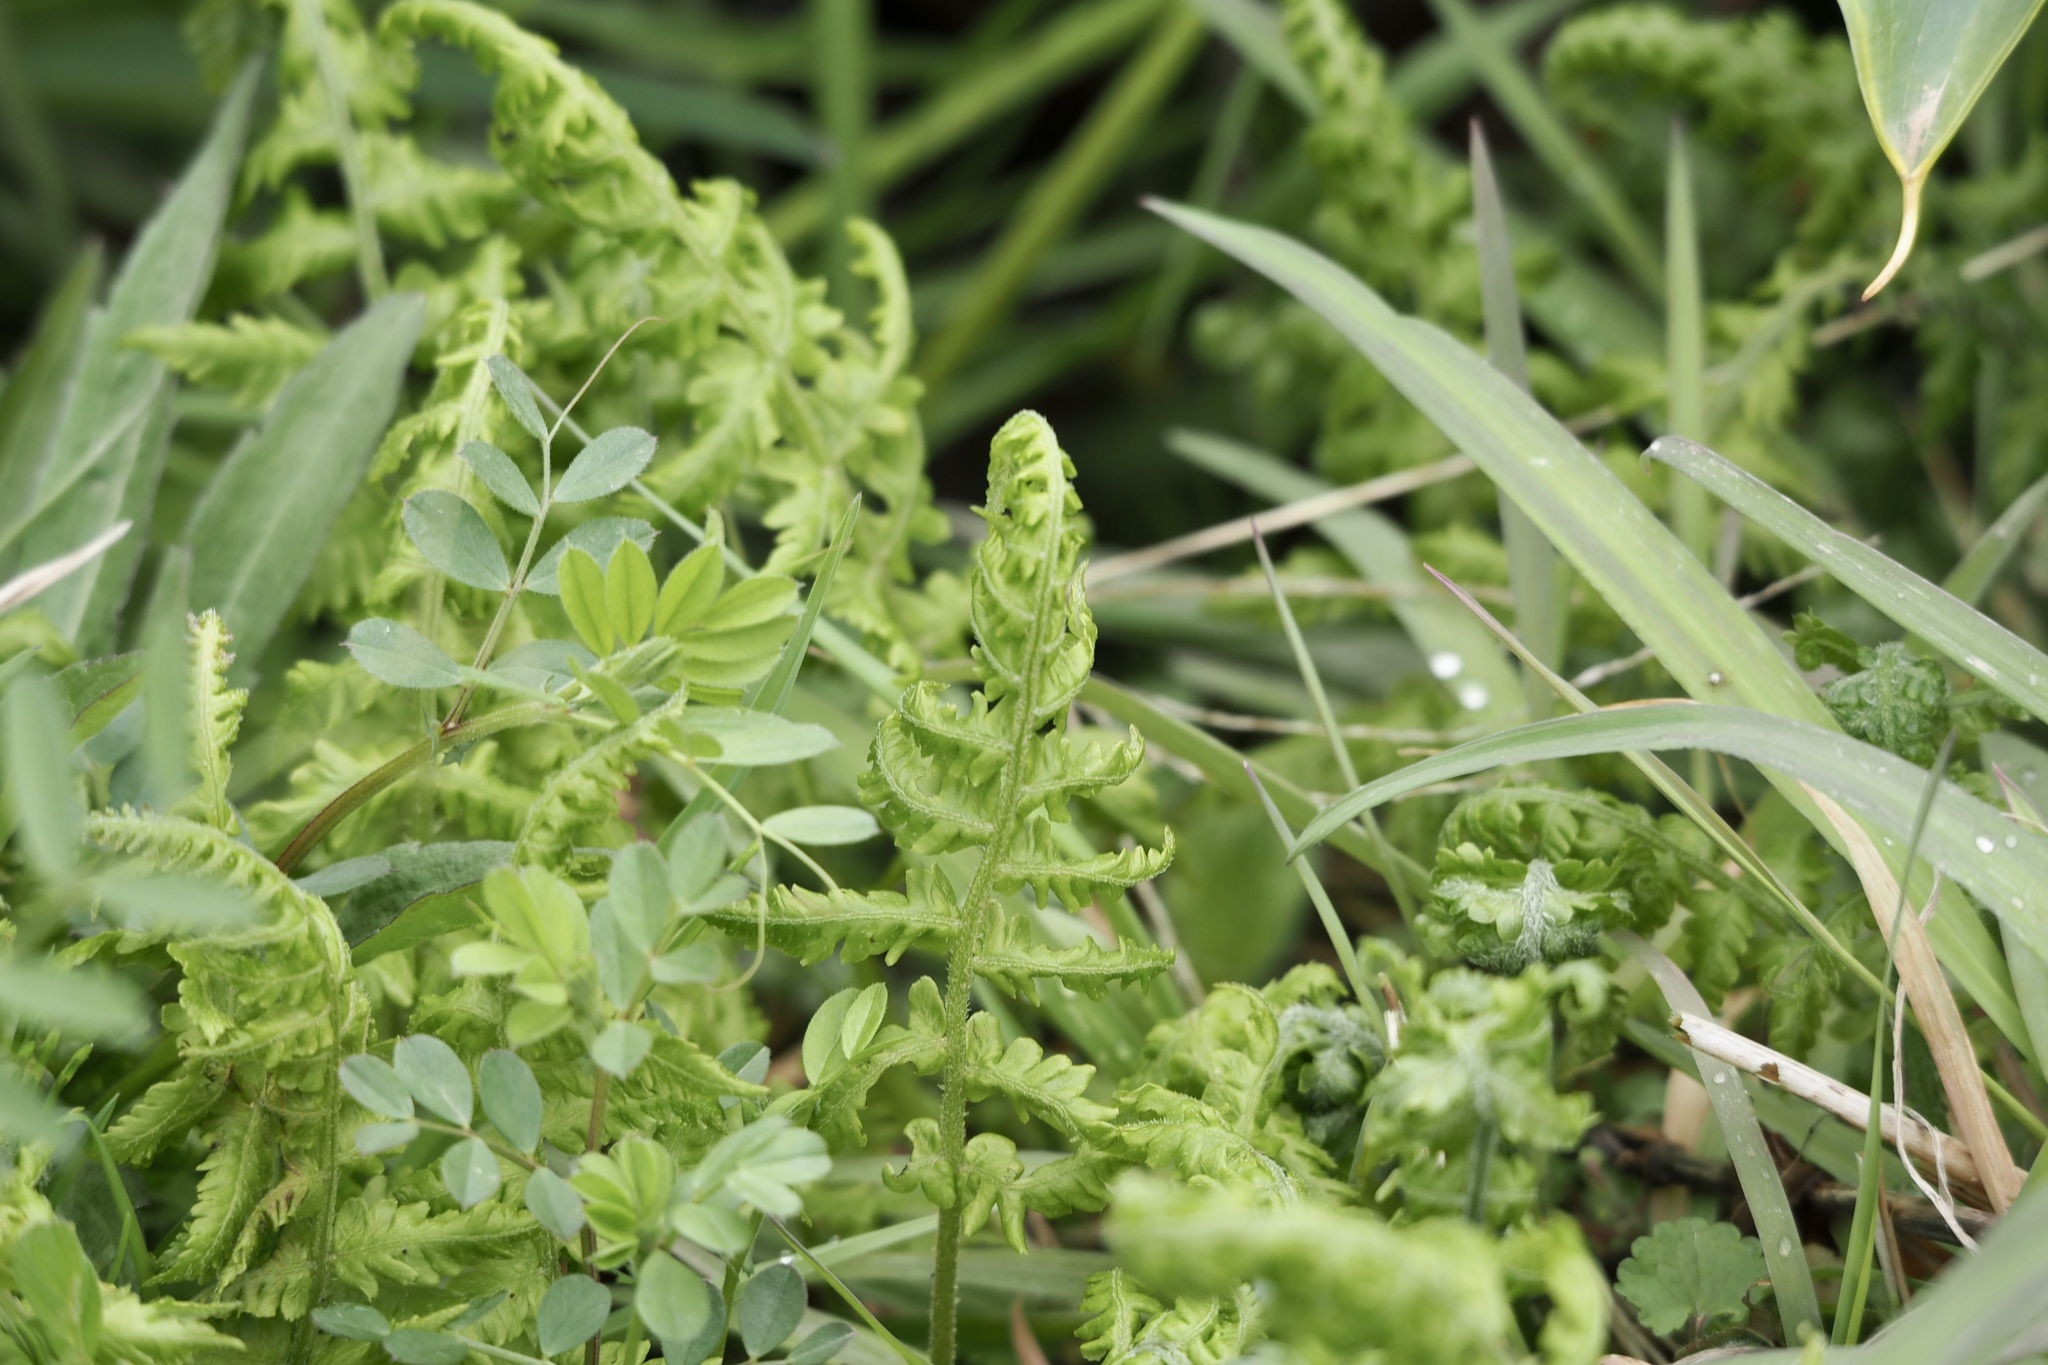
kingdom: Plantae
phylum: Tracheophyta
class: Polypodiopsida
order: Polypodiales
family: Athyriaceae
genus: Deparia
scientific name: Deparia japonica
